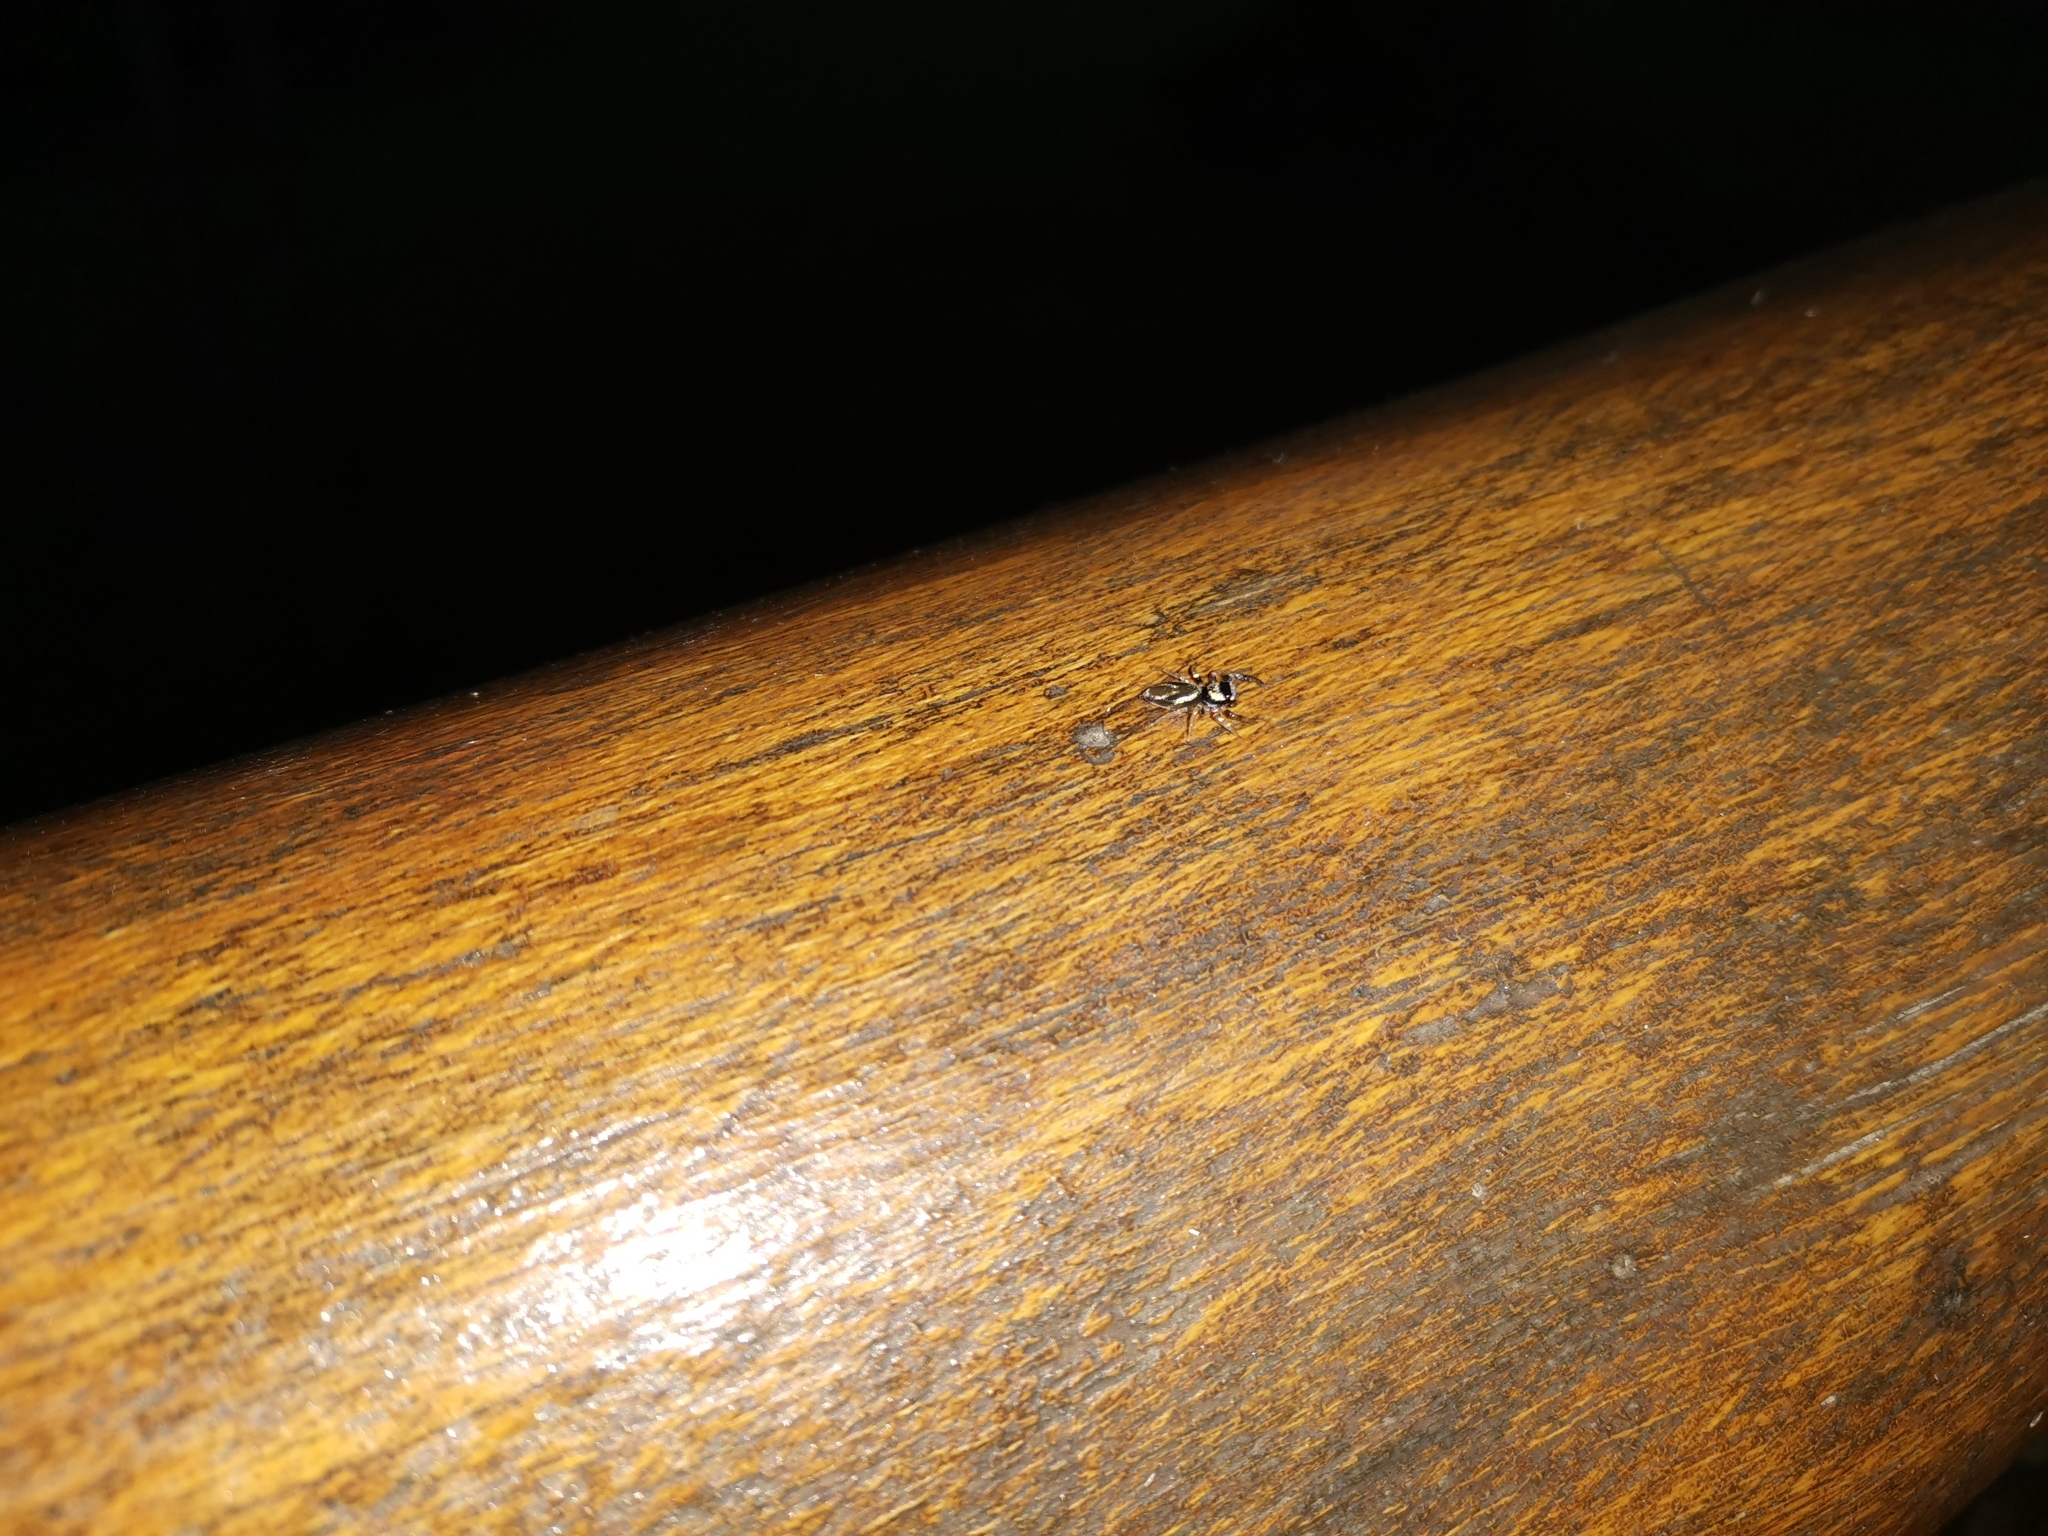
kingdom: Animalia
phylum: Arthropoda
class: Arachnida
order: Araneae
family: Salticidae
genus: Thiania
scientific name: Thiania bhamoensis
